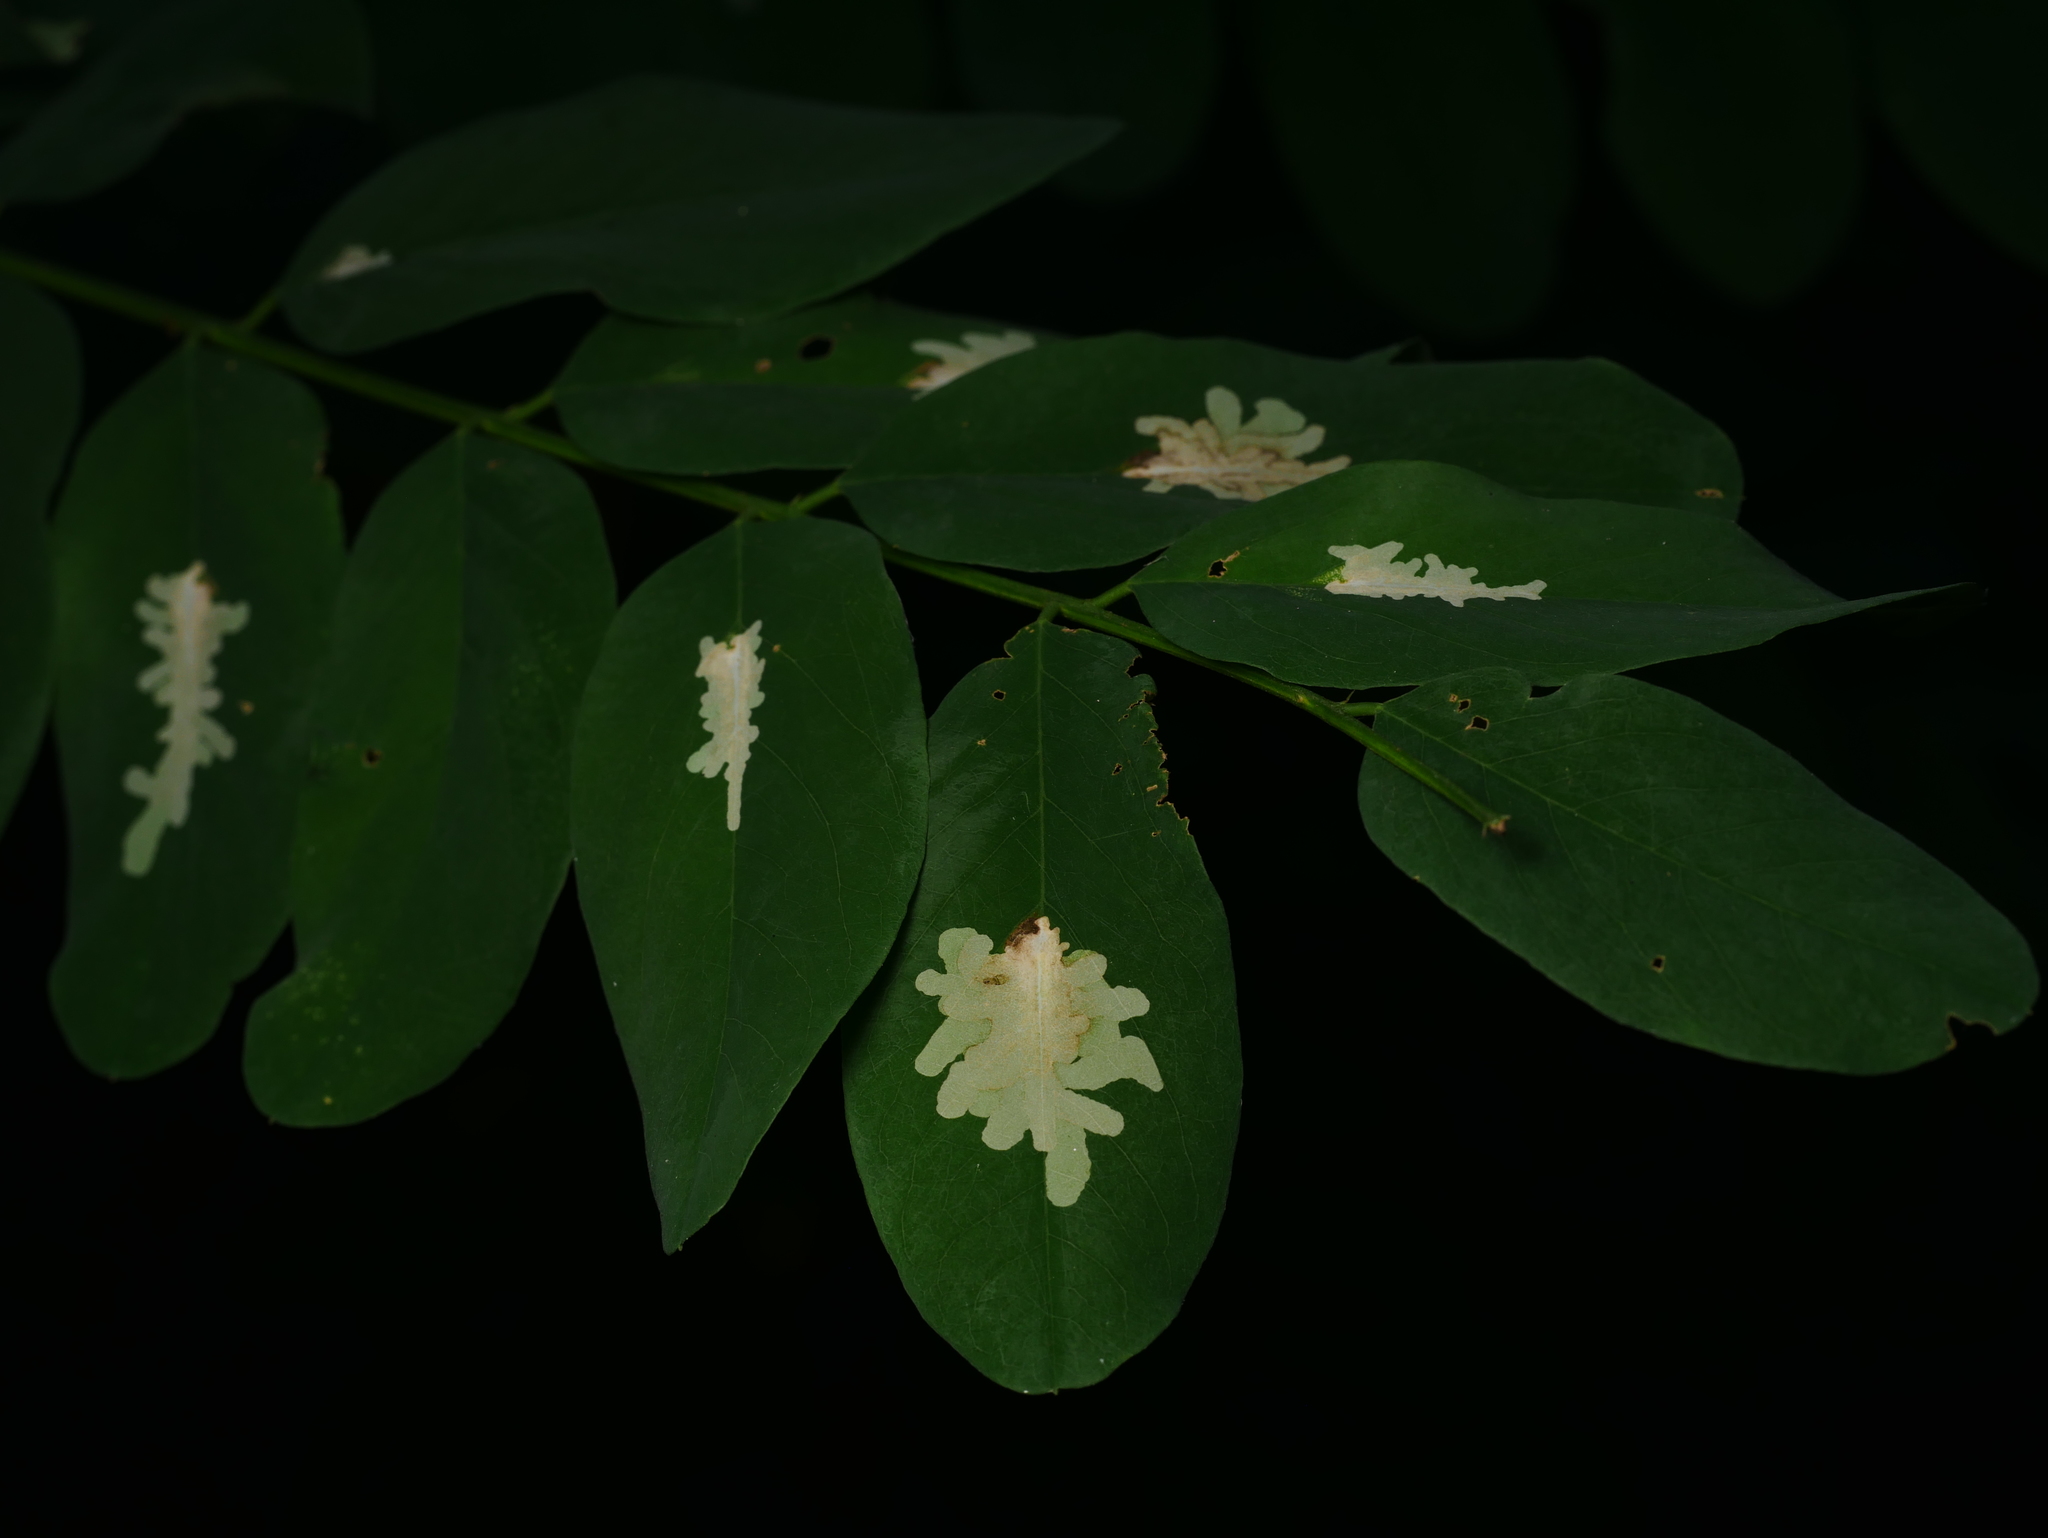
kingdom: Plantae
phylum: Tracheophyta
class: Magnoliopsida
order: Fabales
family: Fabaceae
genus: Robinia
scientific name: Robinia pseudoacacia
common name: Black locust
